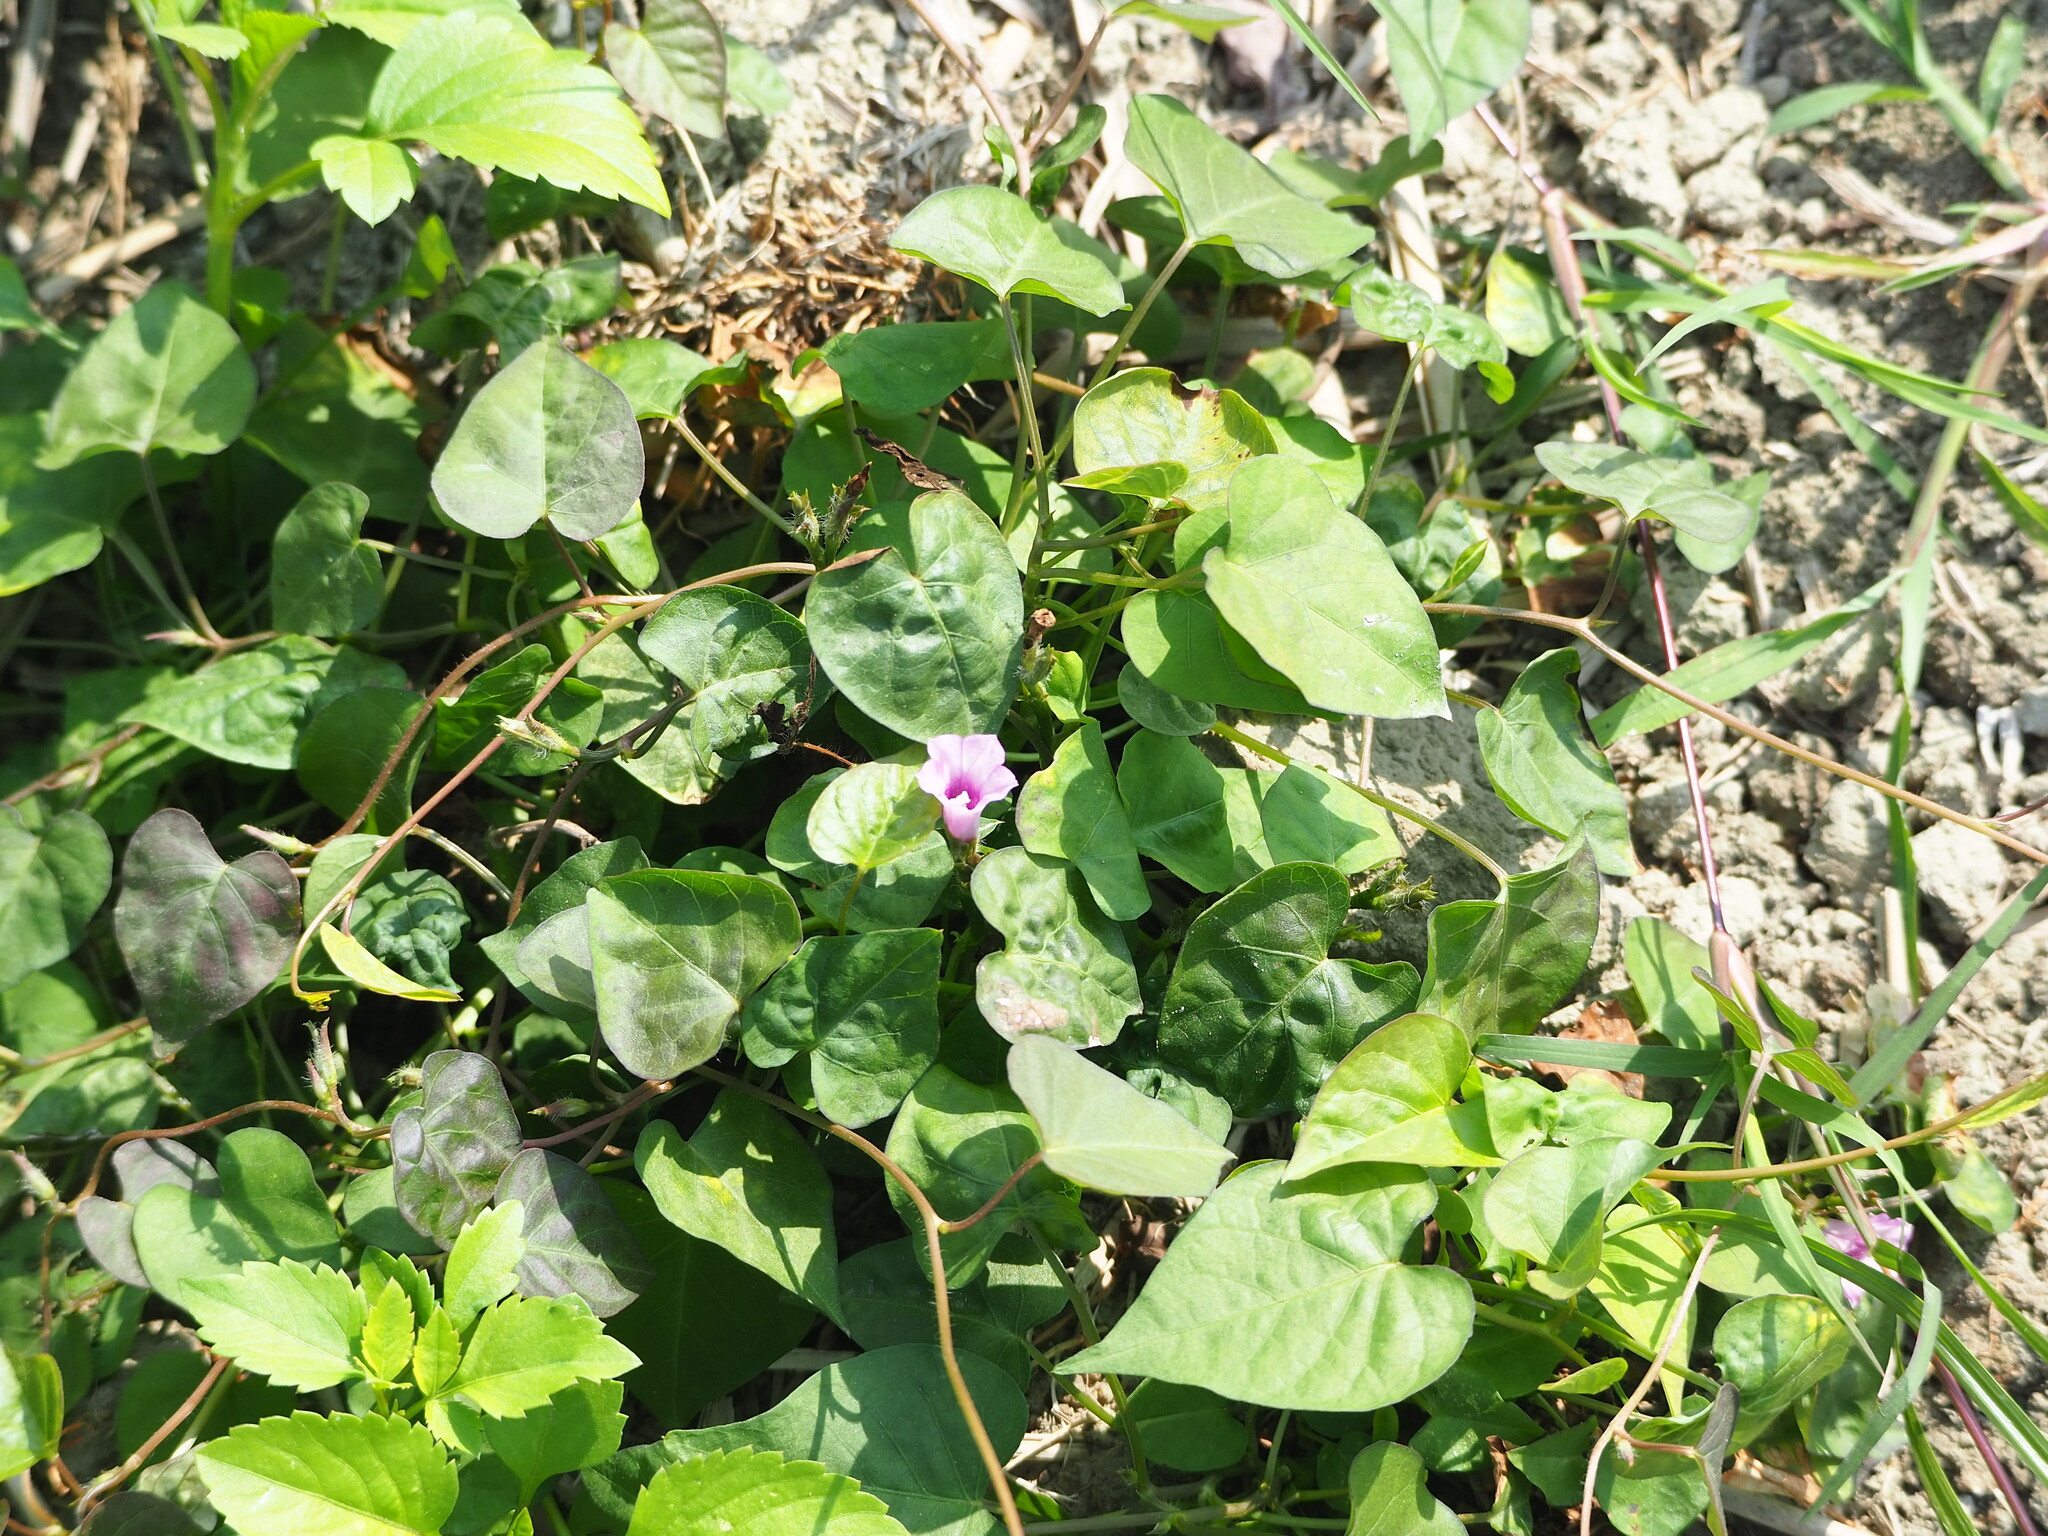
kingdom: Plantae
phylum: Tracheophyta
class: Magnoliopsida
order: Solanales
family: Convolvulaceae
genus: Ipomoea
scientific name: Ipomoea triloba
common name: Little-bell
